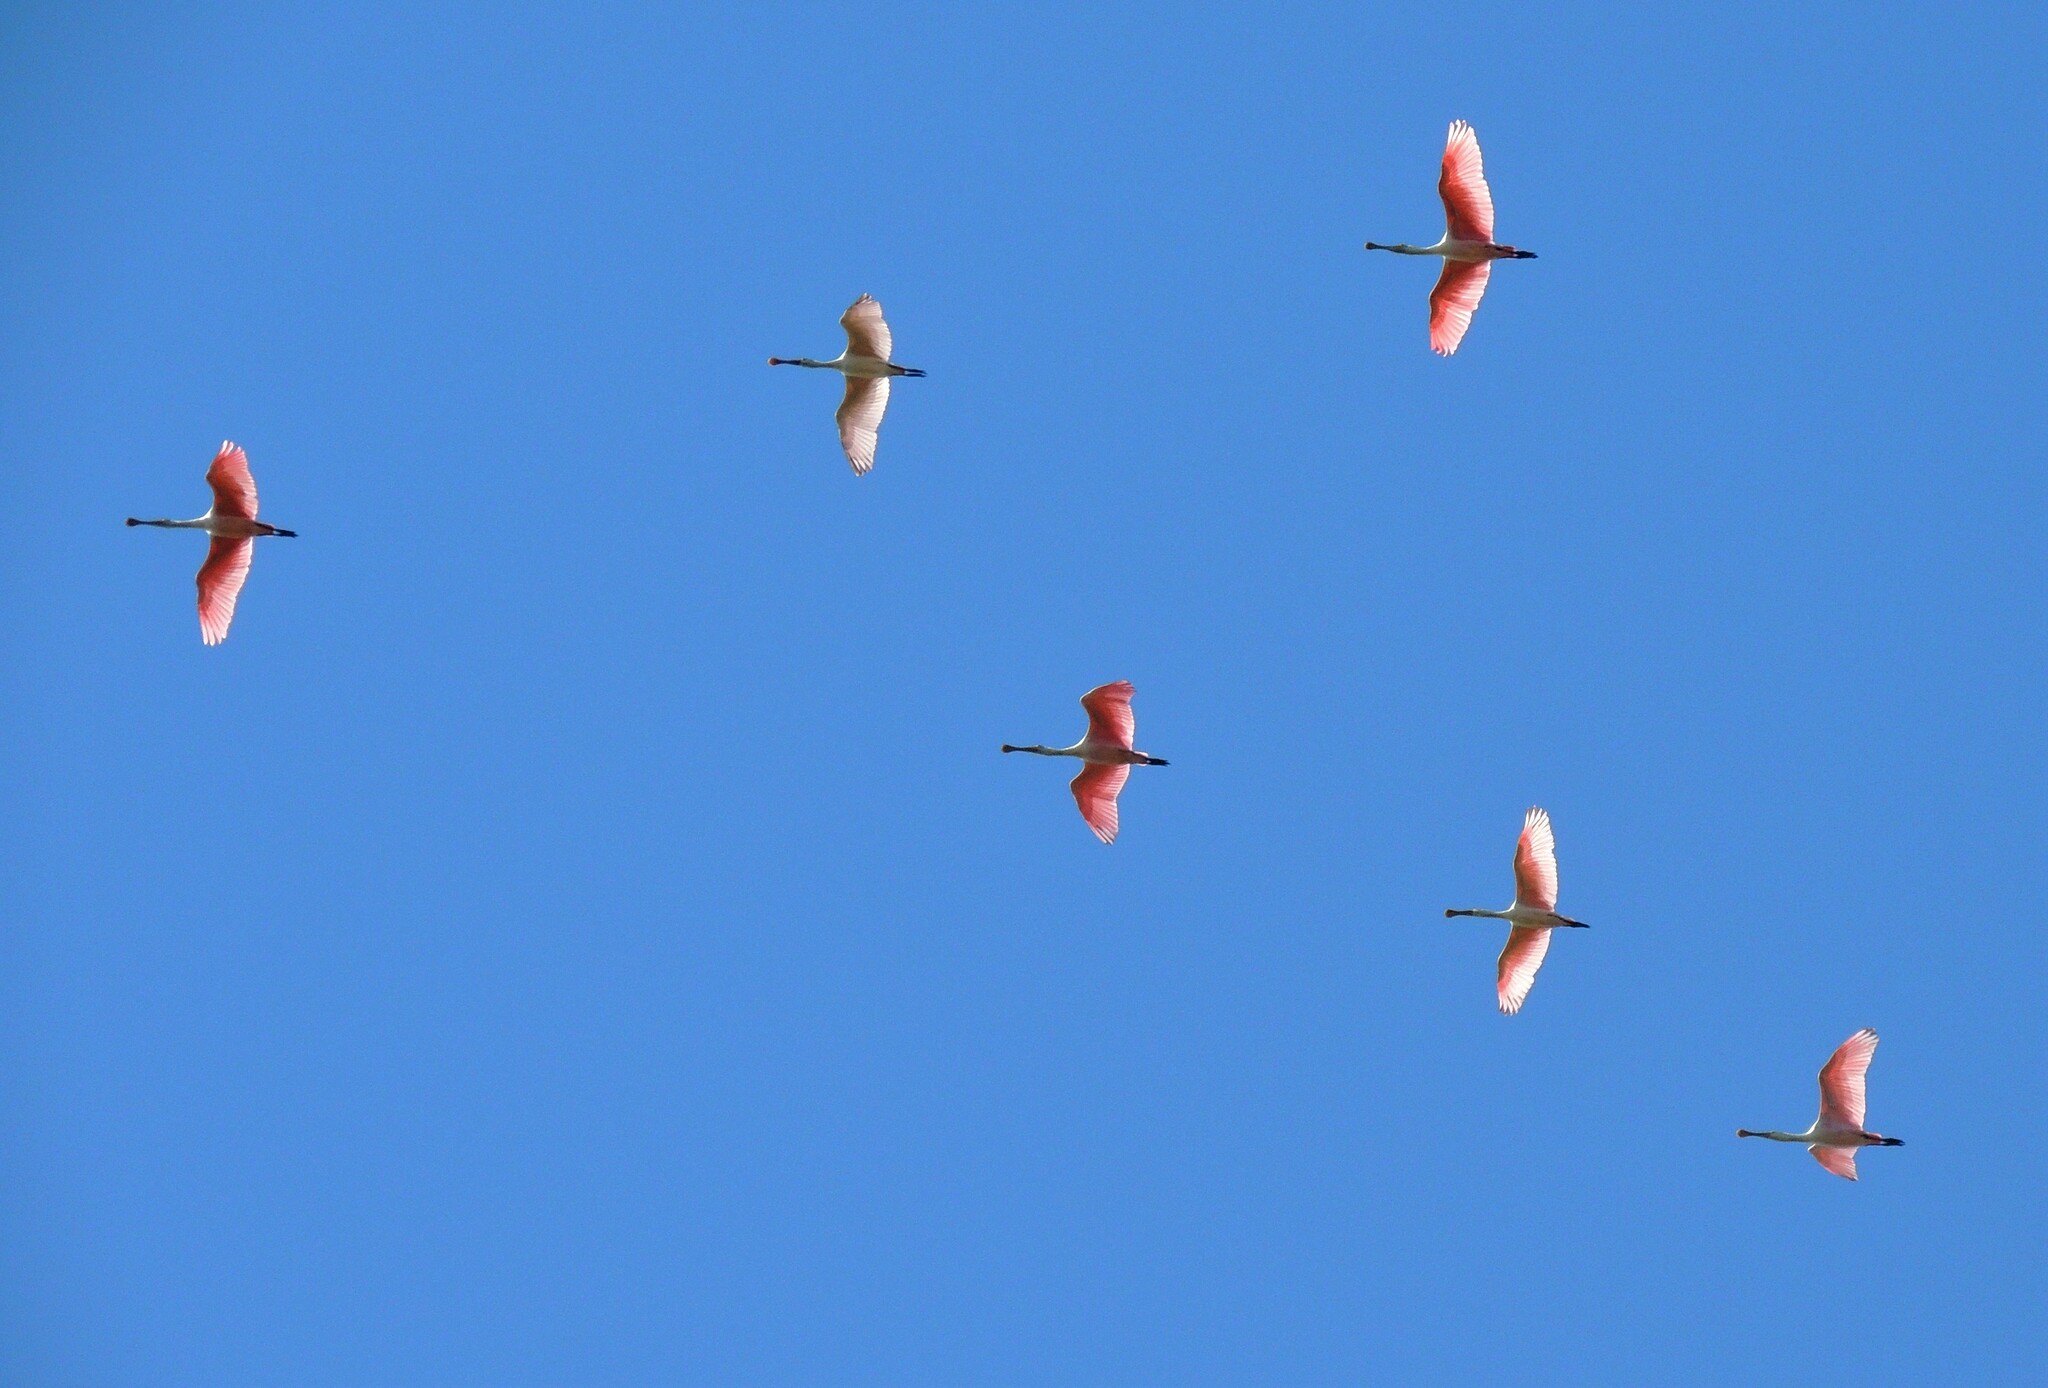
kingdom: Animalia
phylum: Chordata
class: Aves
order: Pelecaniformes
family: Threskiornithidae
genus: Platalea
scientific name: Platalea ajaja
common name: Roseate spoonbill
